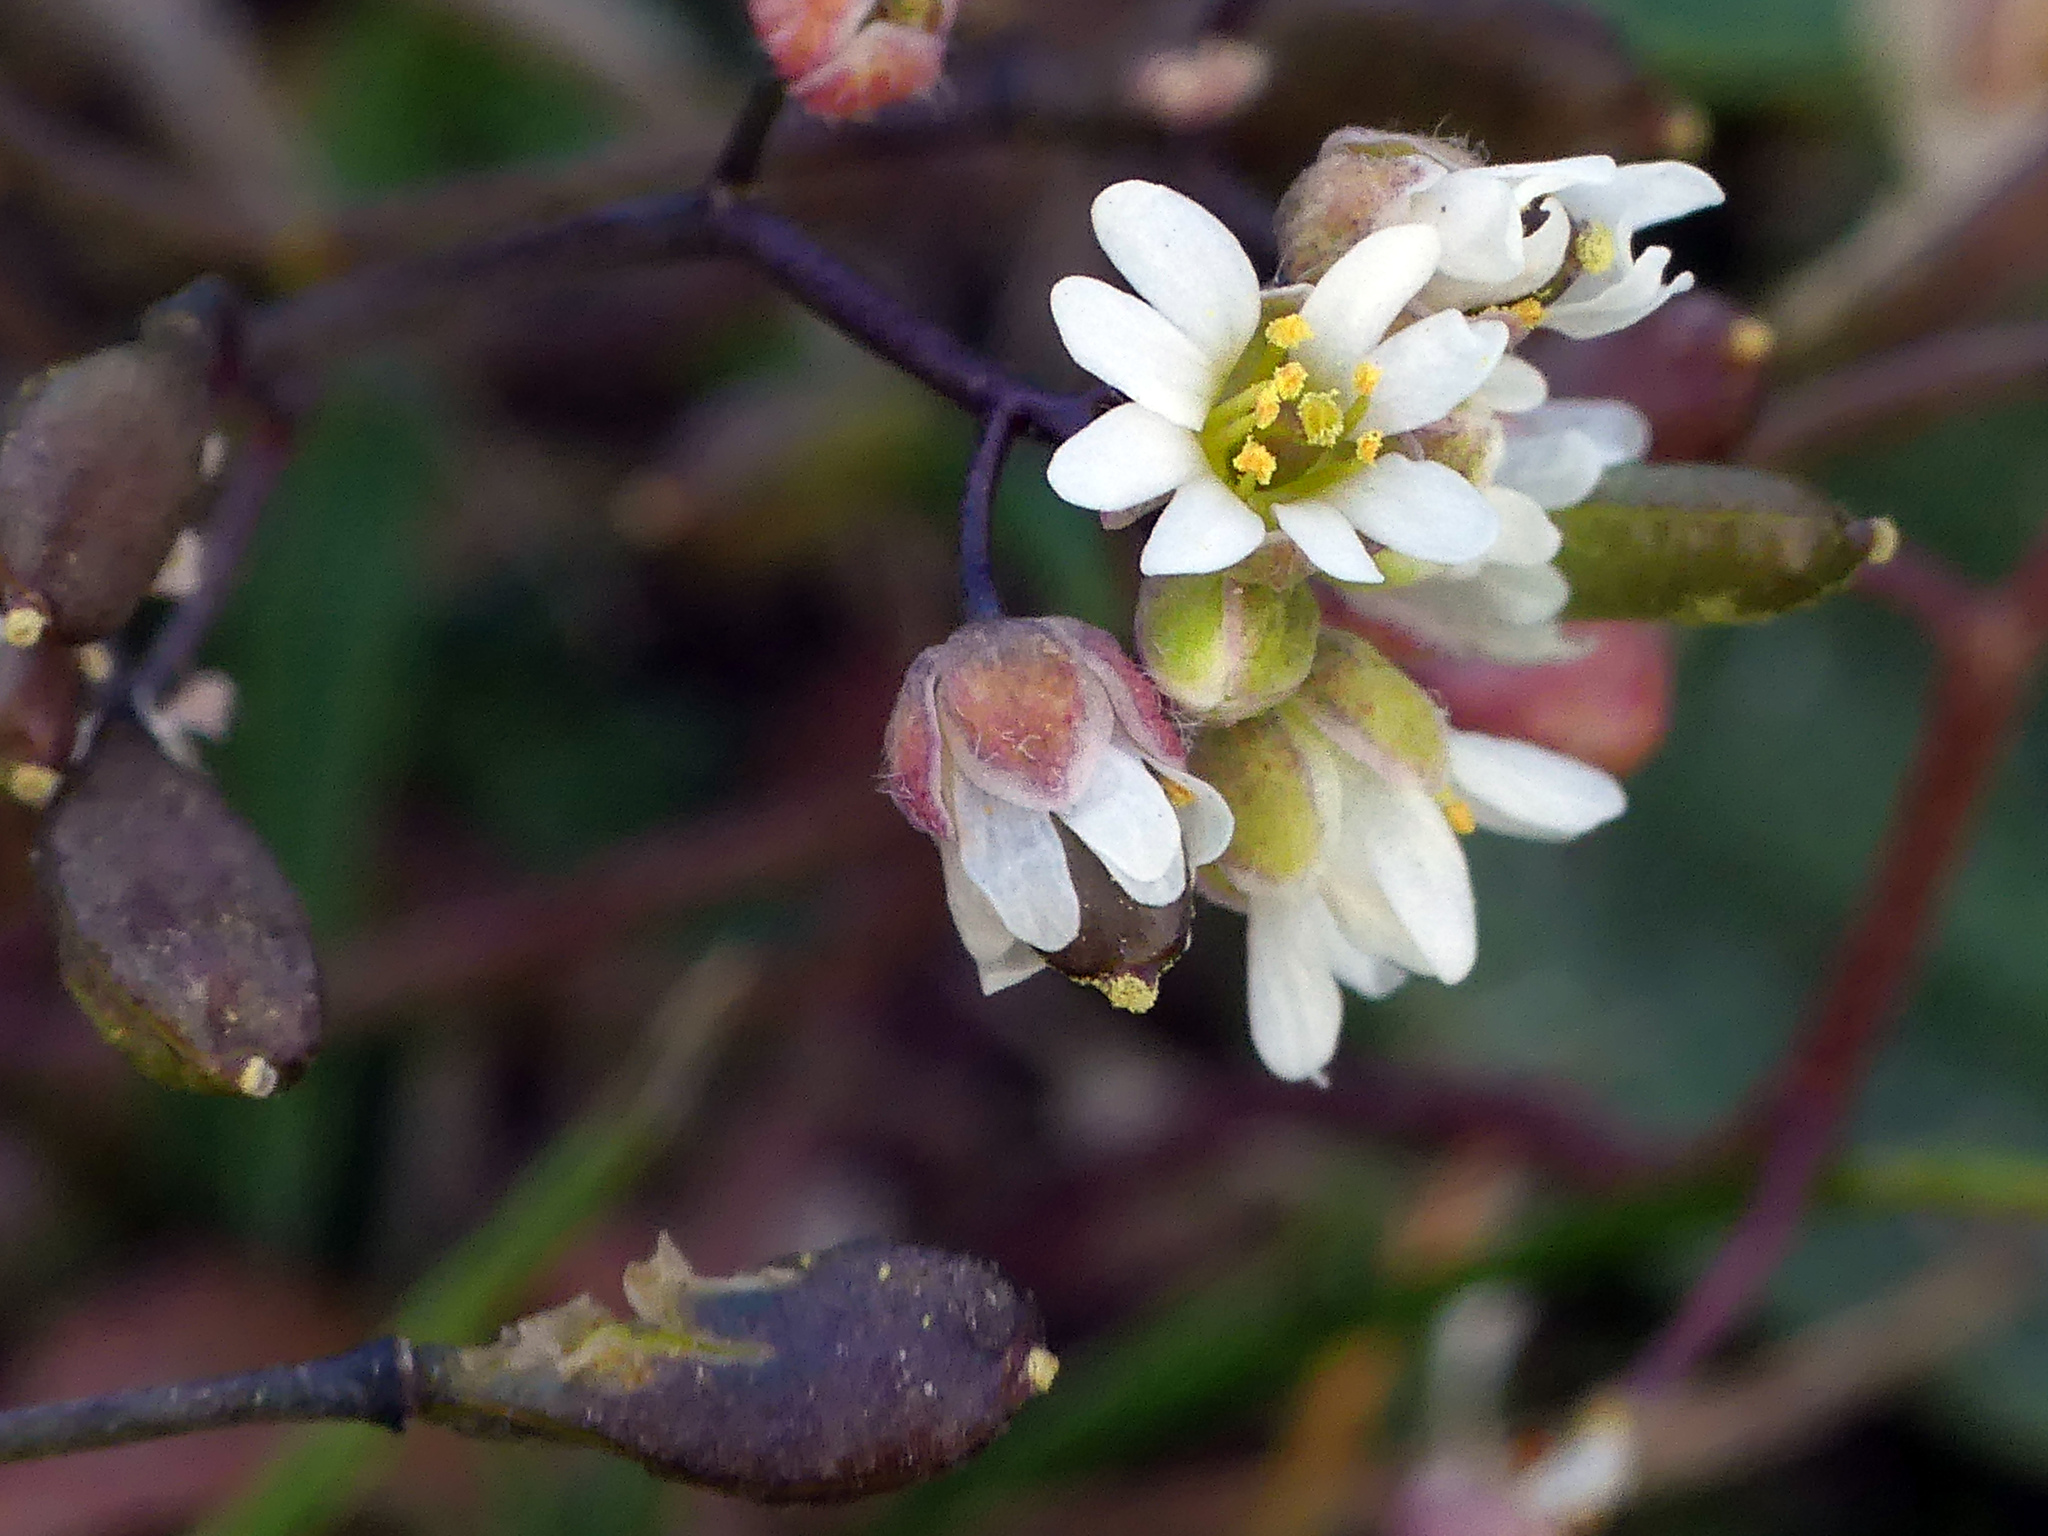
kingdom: Plantae
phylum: Tracheophyta
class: Magnoliopsida
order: Brassicales
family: Brassicaceae
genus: Draba
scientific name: Draba verna
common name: Spring draba
